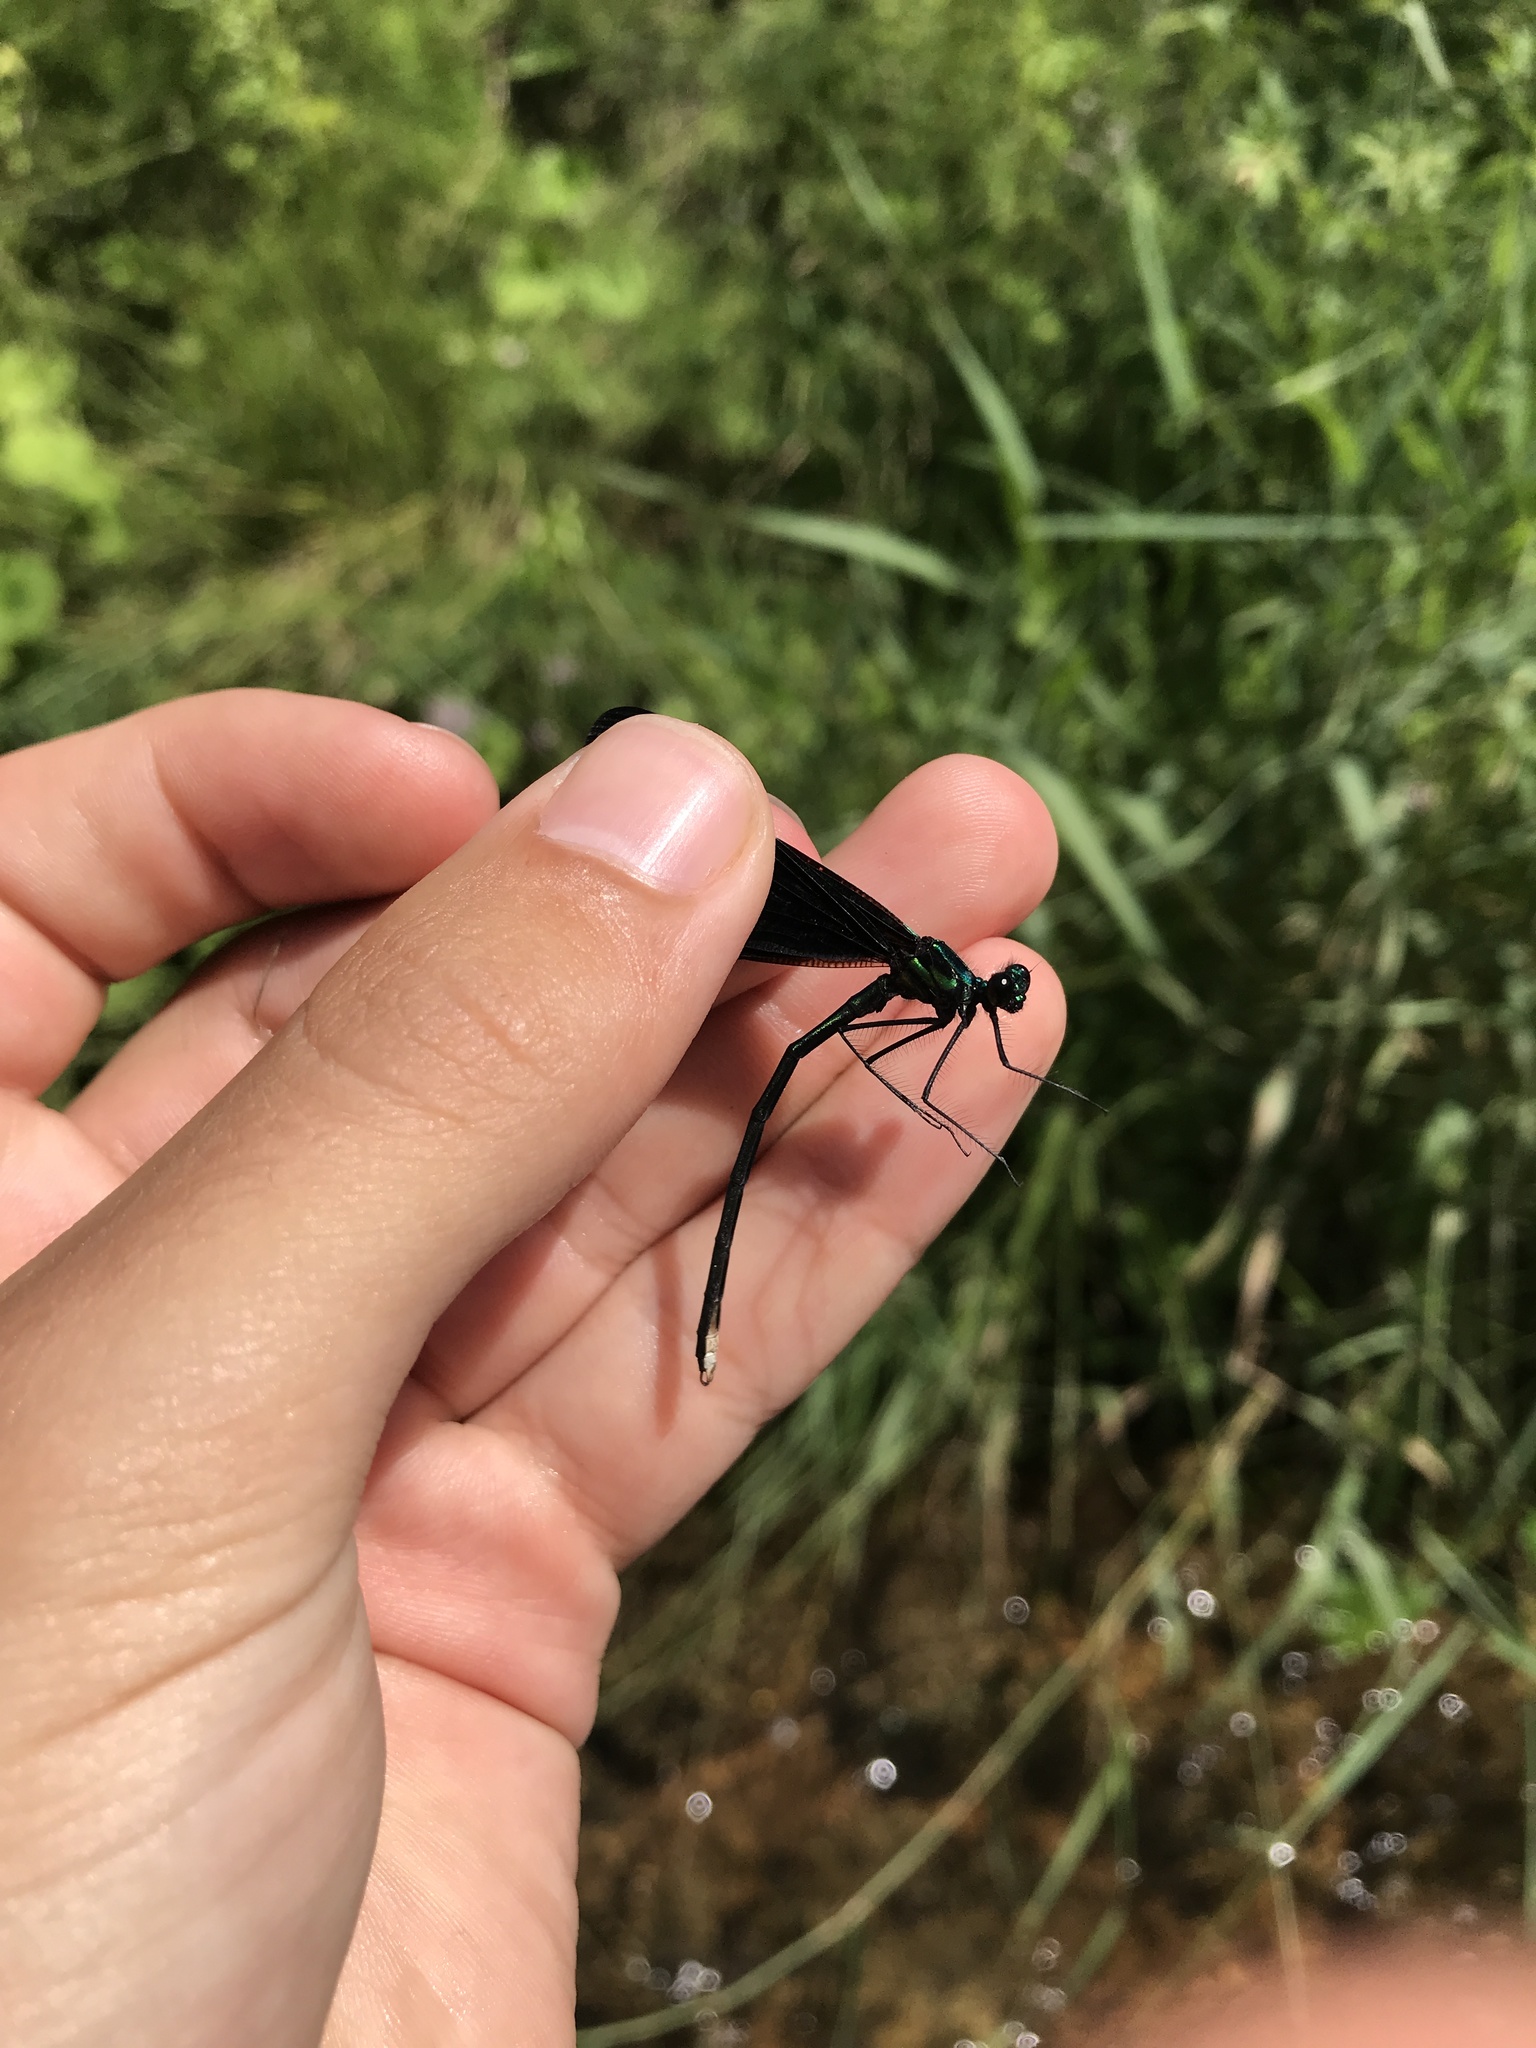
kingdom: Animalia
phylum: Arthropoda
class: Insecta
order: Odonata
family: Calopterygidae
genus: Calopteryx
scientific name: Calopteryx maculata
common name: Ebony jewelwing
